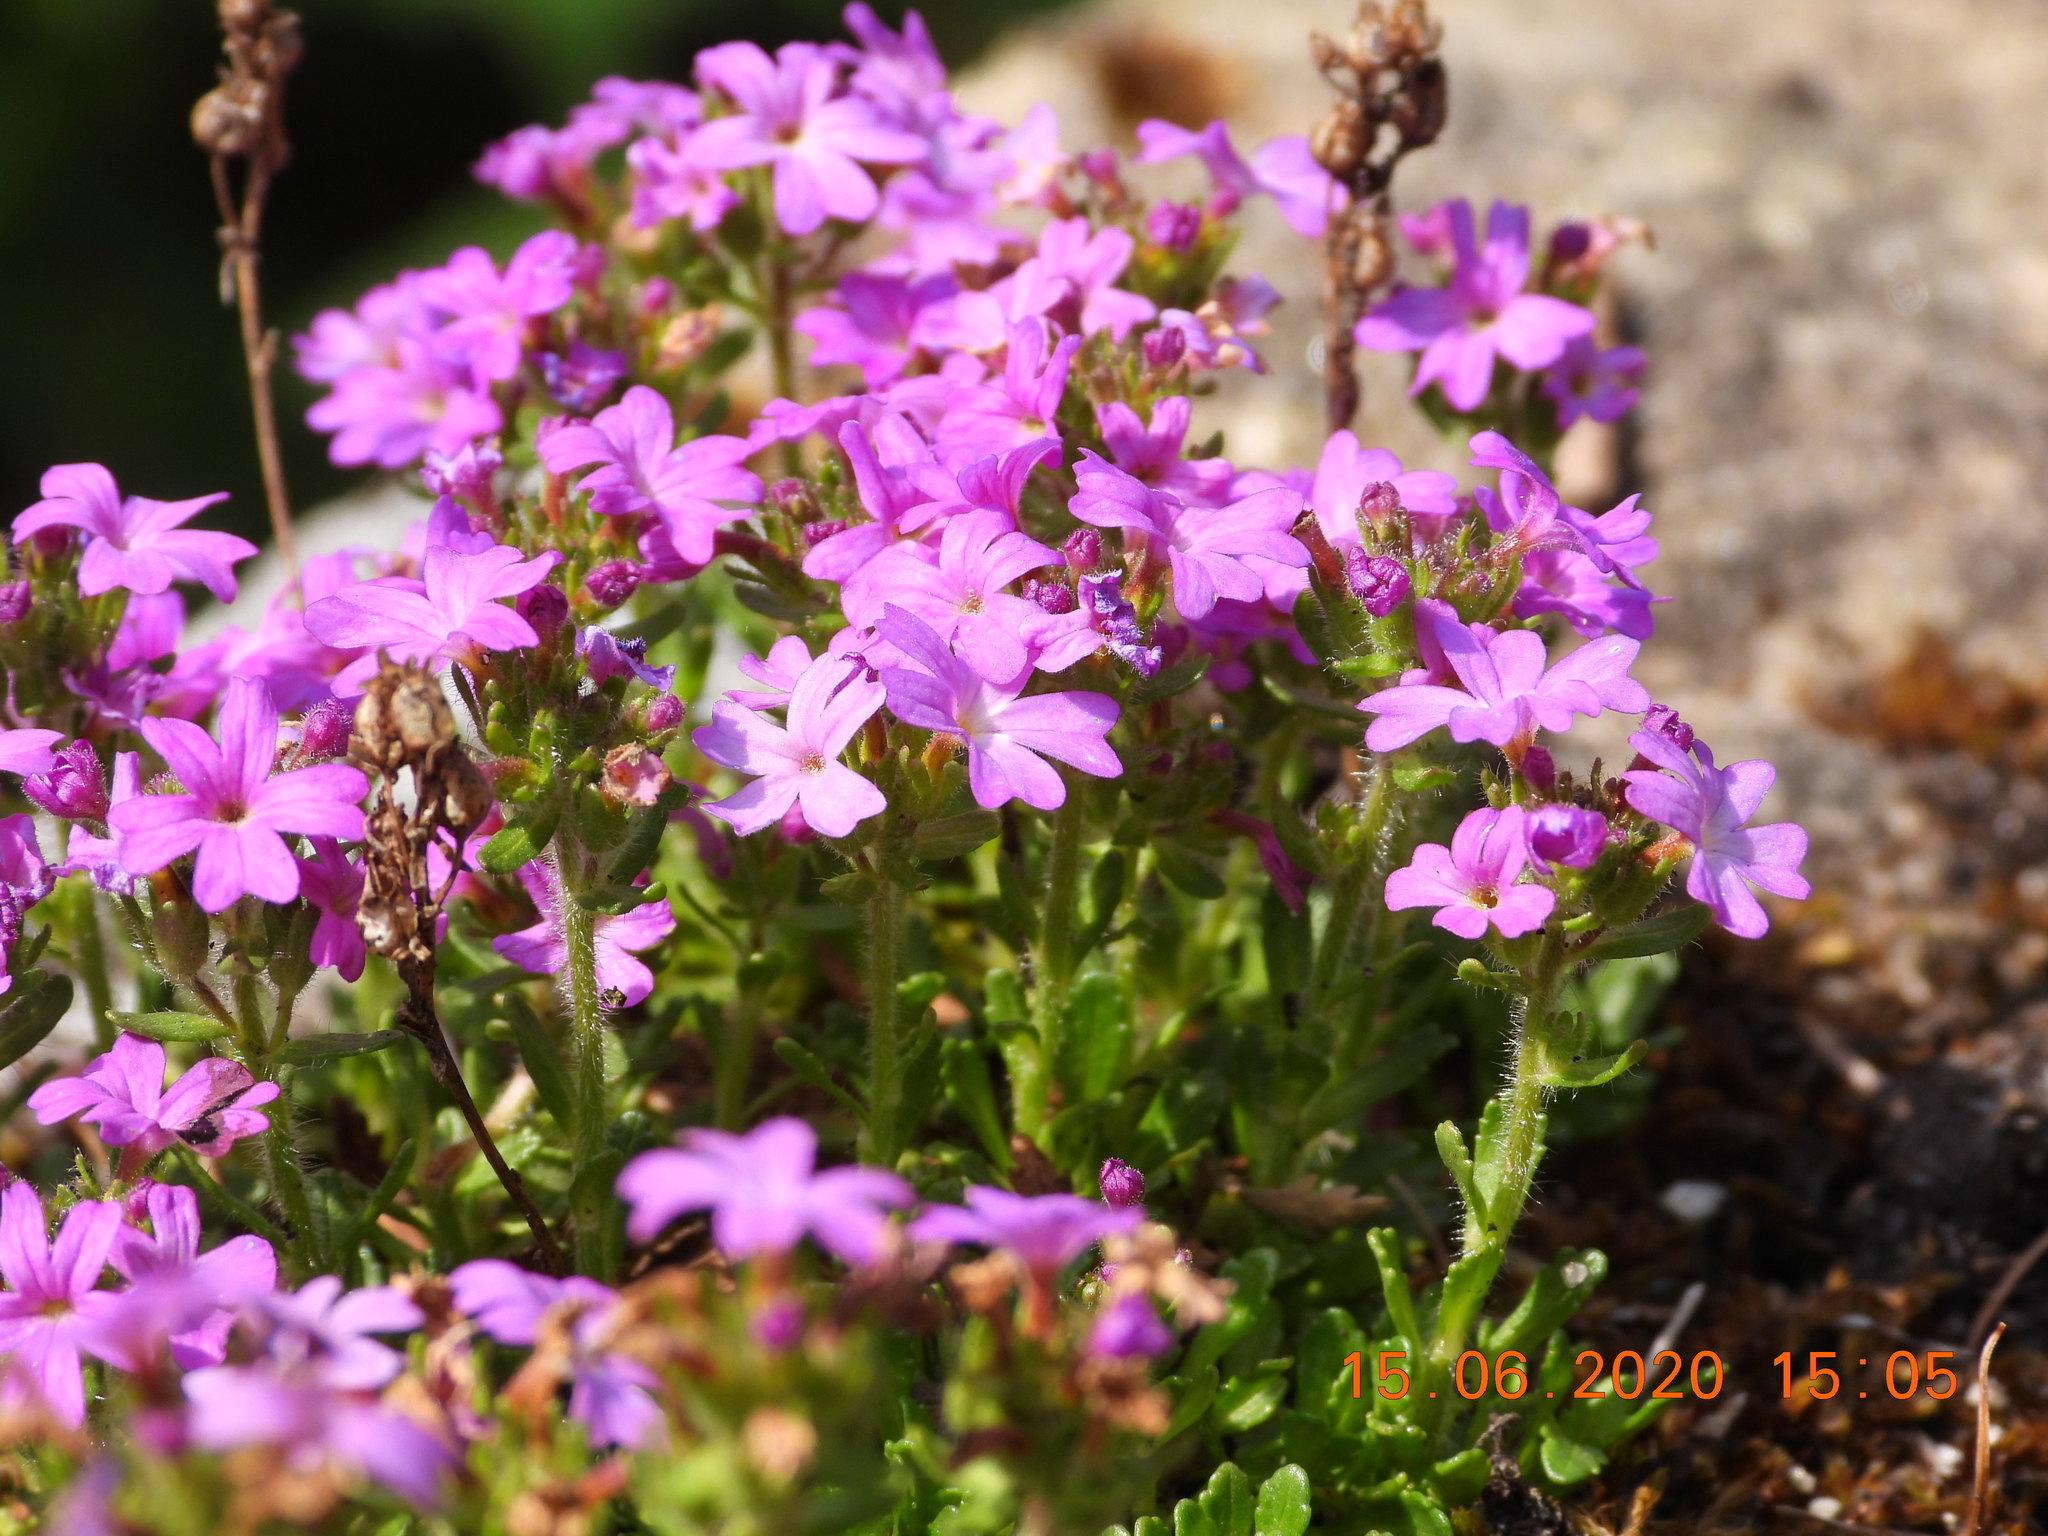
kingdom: Plantae
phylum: Tracheophyta
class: Magnoliopsida
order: Lamiales
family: Plantaginaceae
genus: Erinus
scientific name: Erinus alpinus
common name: Fairy foxglove
